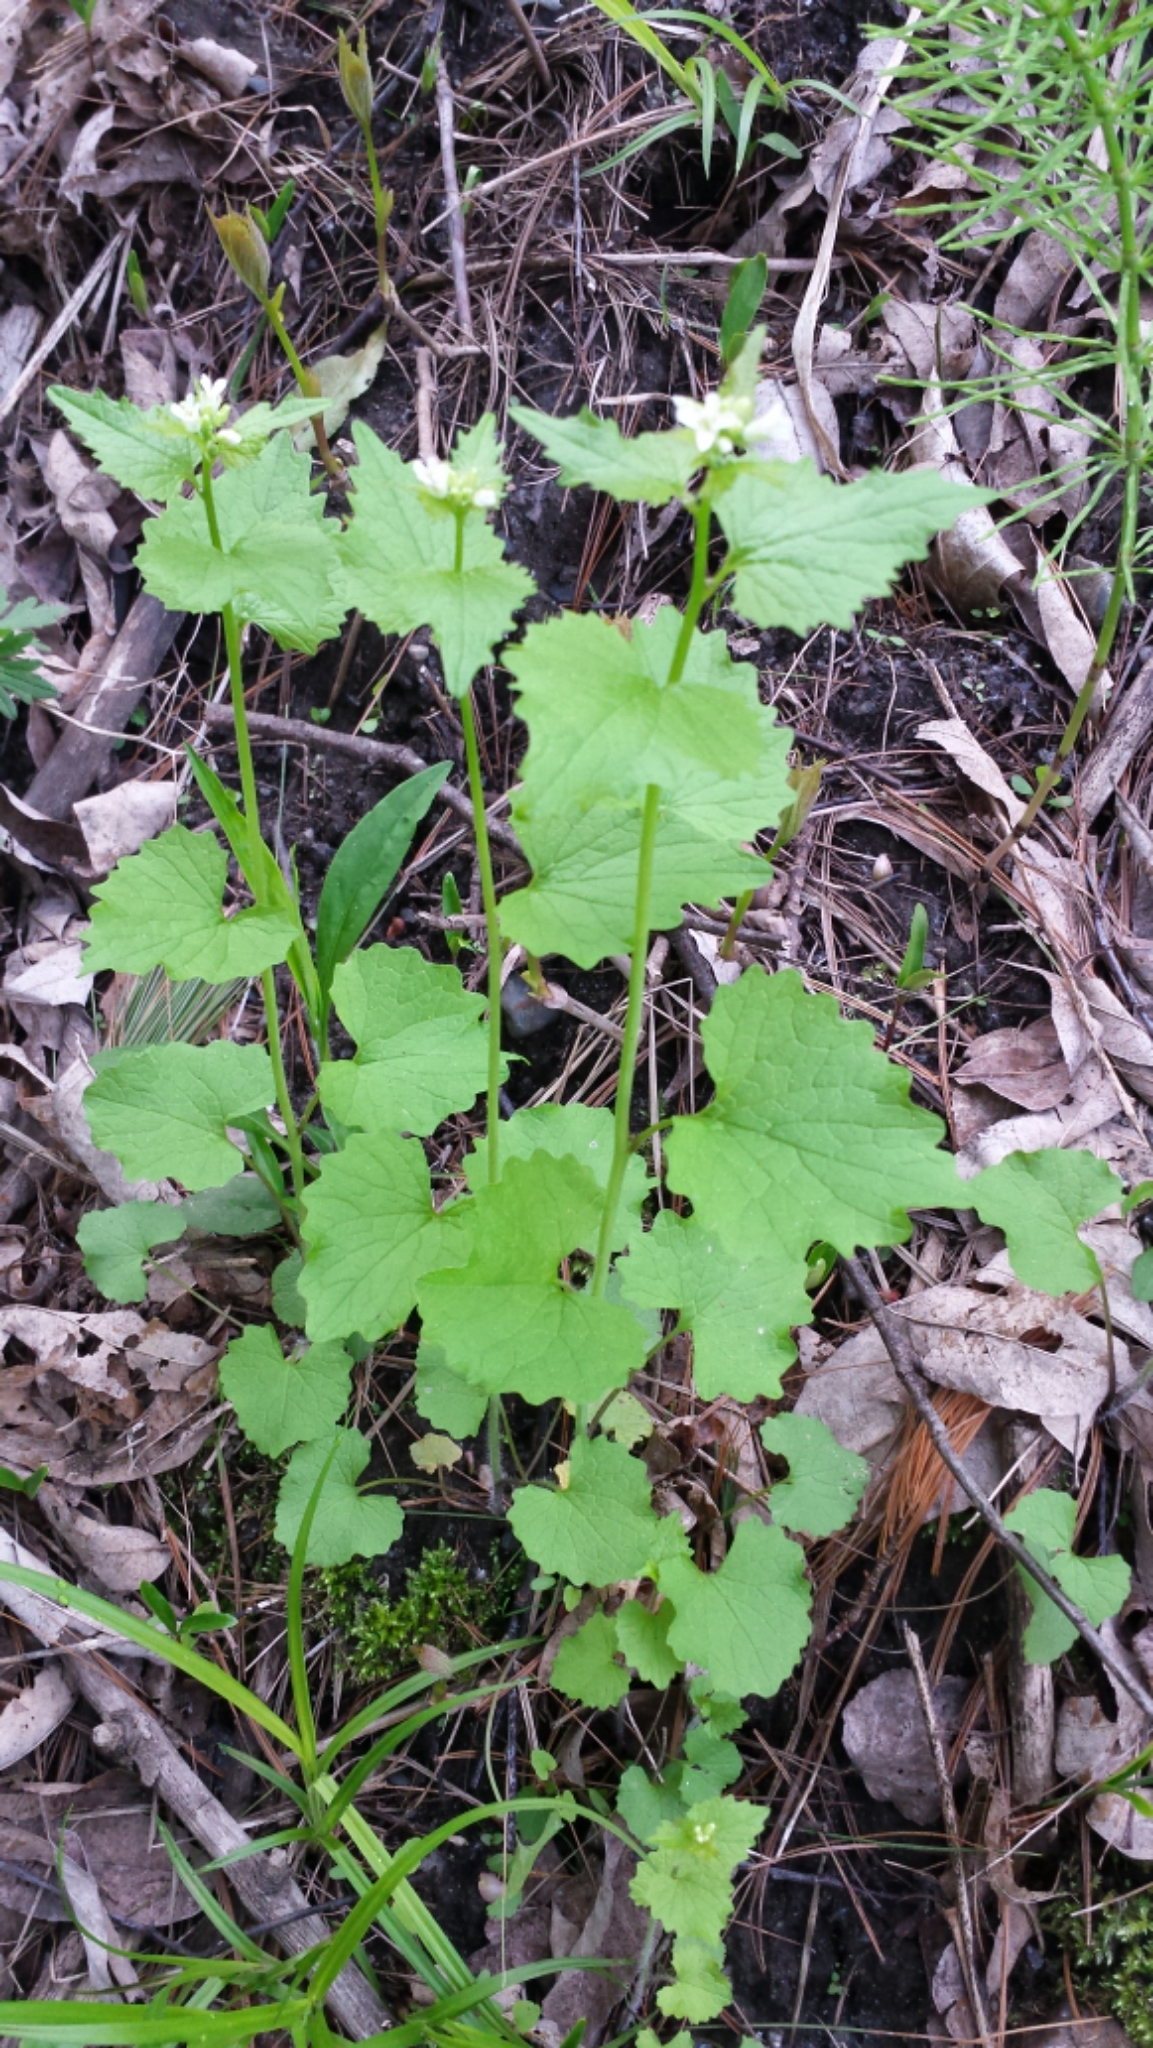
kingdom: Plantae
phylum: Tracheophyta
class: Magnoliopsida
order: Brassicales
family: Brassicaceae
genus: Alliaria
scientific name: Alliaria petiolata
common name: Garlic mustard
